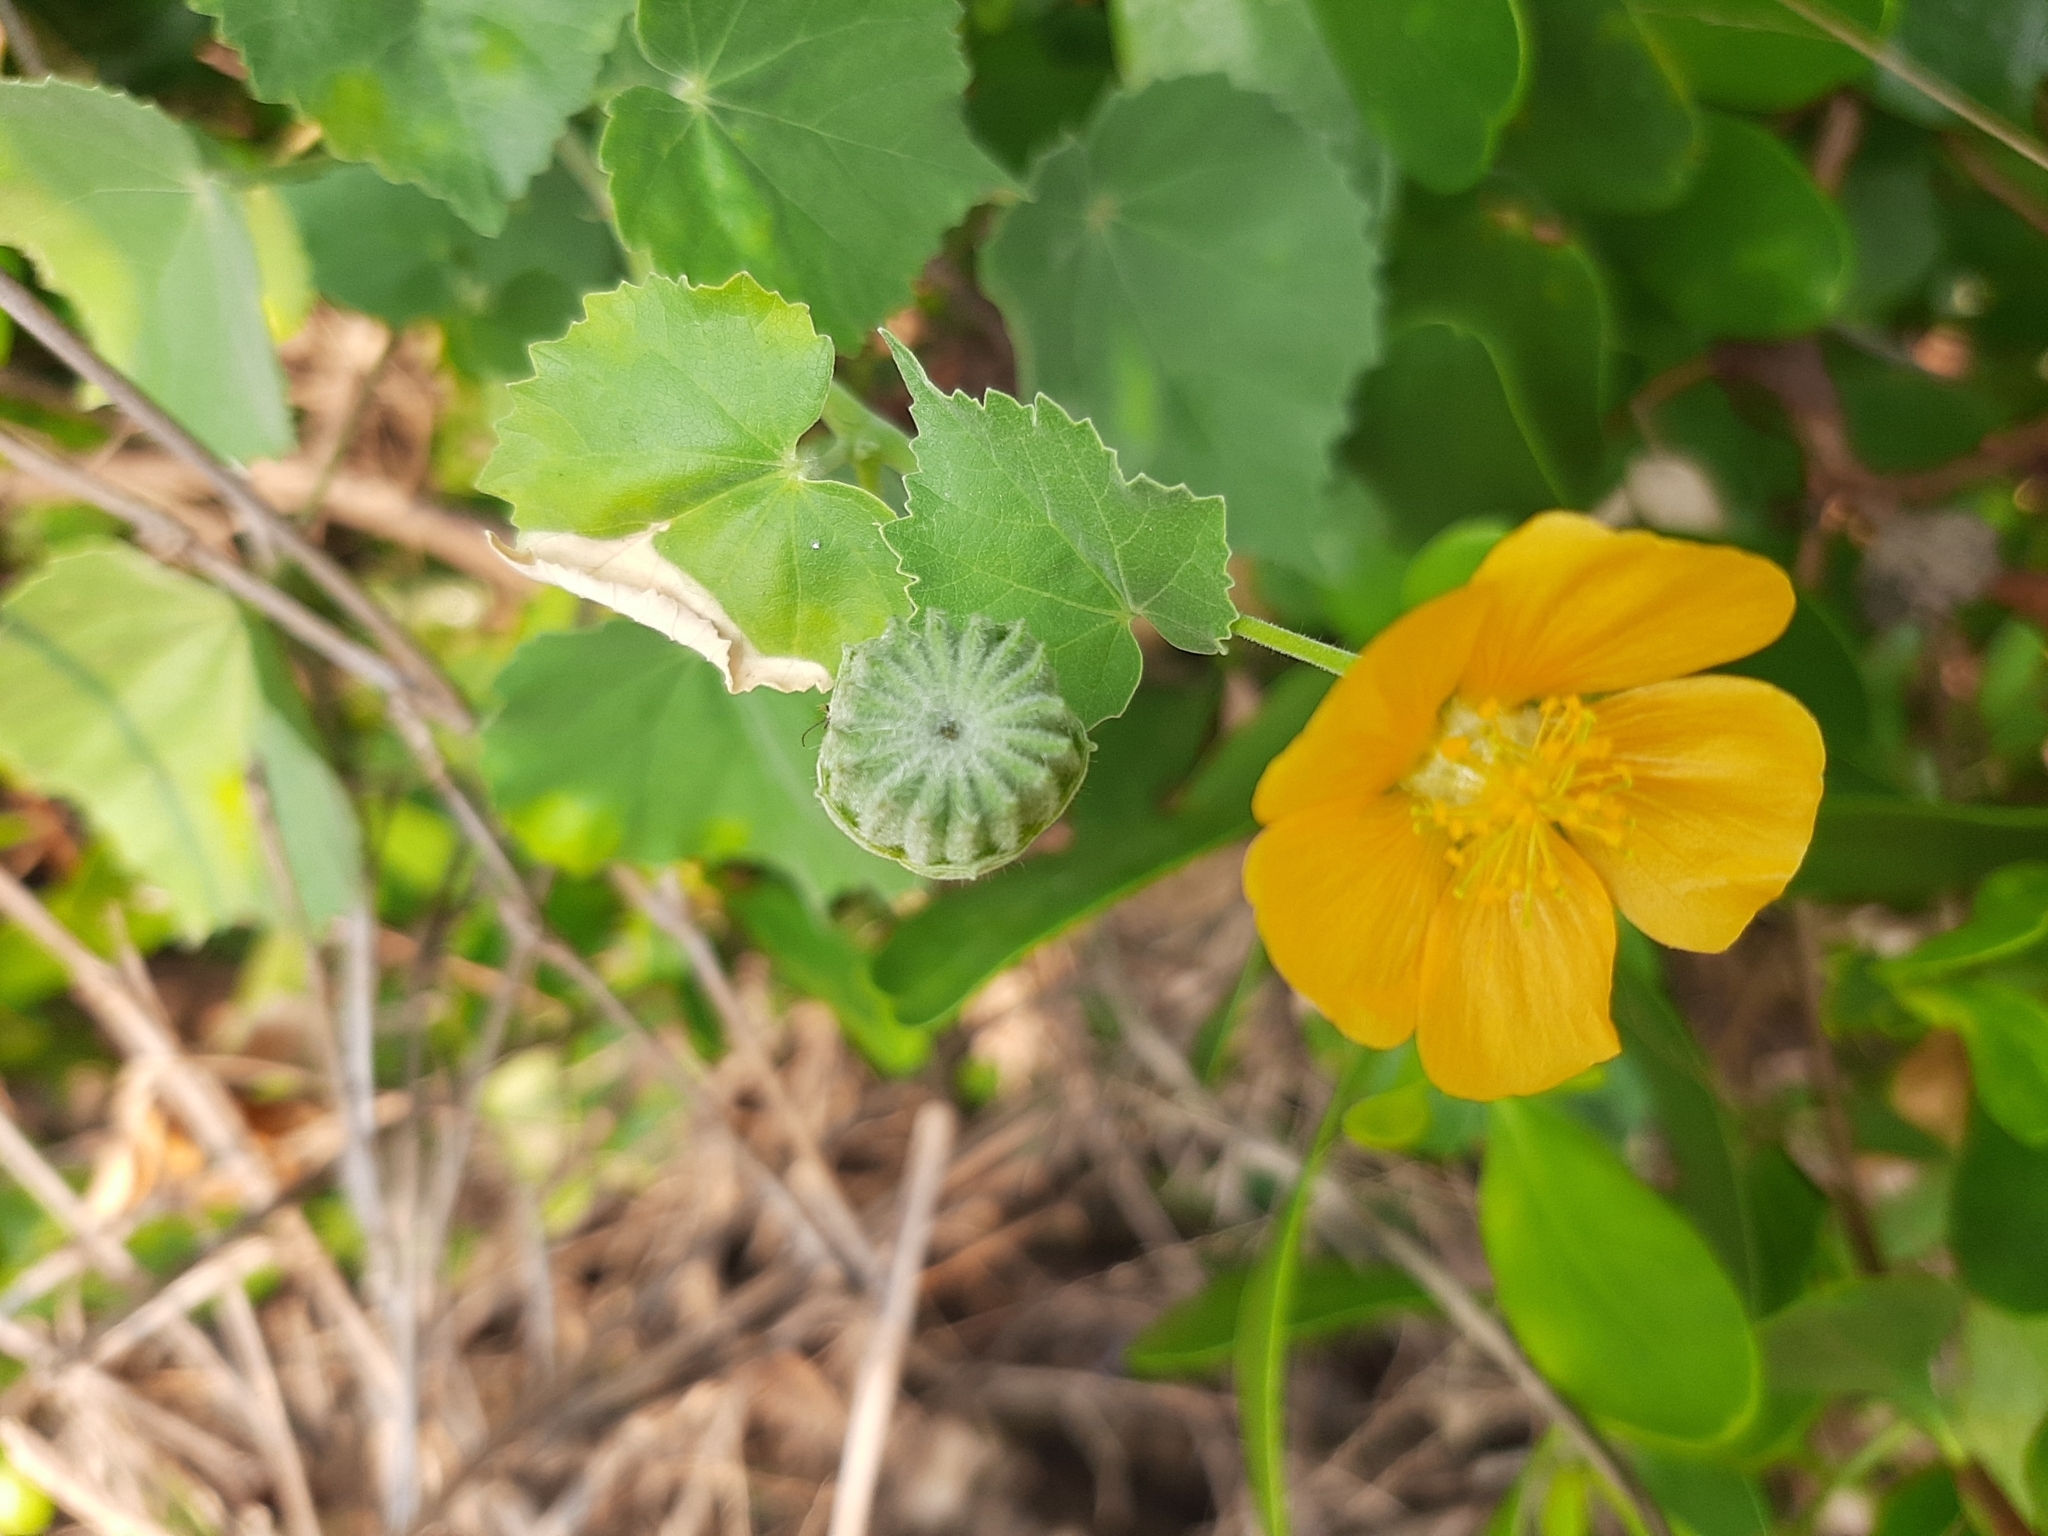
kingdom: Plantae
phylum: Tracheophyta
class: Magnoliopsida
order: Malvales
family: Malvaceae
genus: Abutilon
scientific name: Abutilon indicum
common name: Indian abutilon
